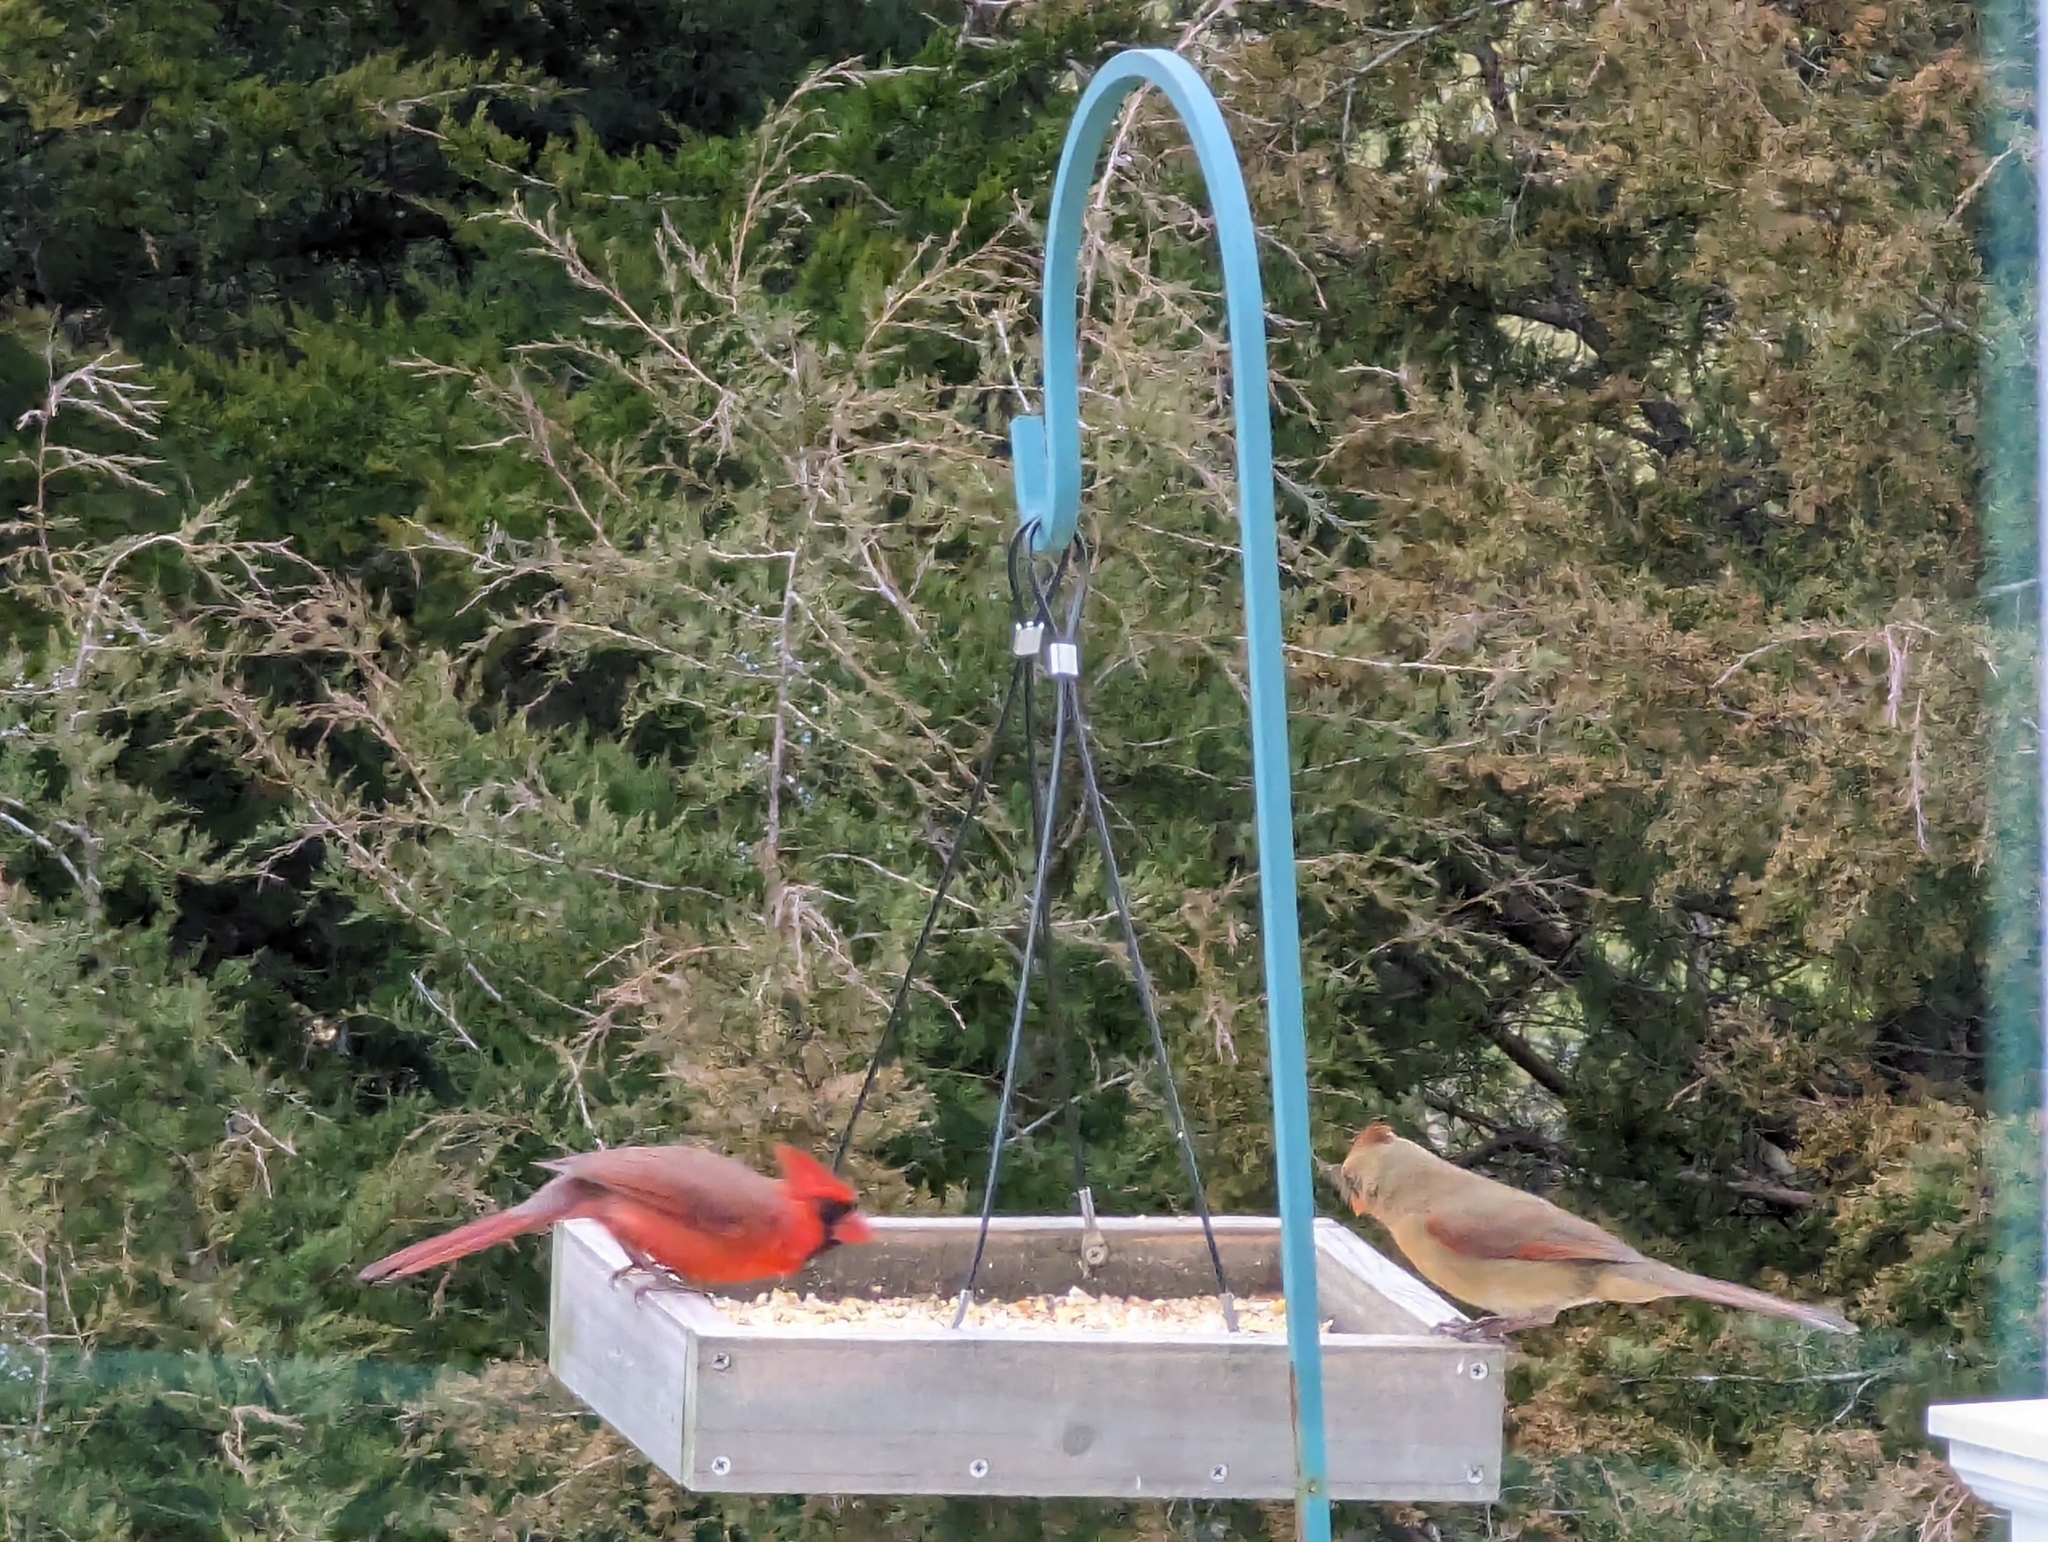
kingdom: Animalia
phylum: Chordata
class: Aves
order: Passeriformes
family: Cardinalidae
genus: Cardinalis
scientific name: Cardinalis cardinalis
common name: Northern cardinal
